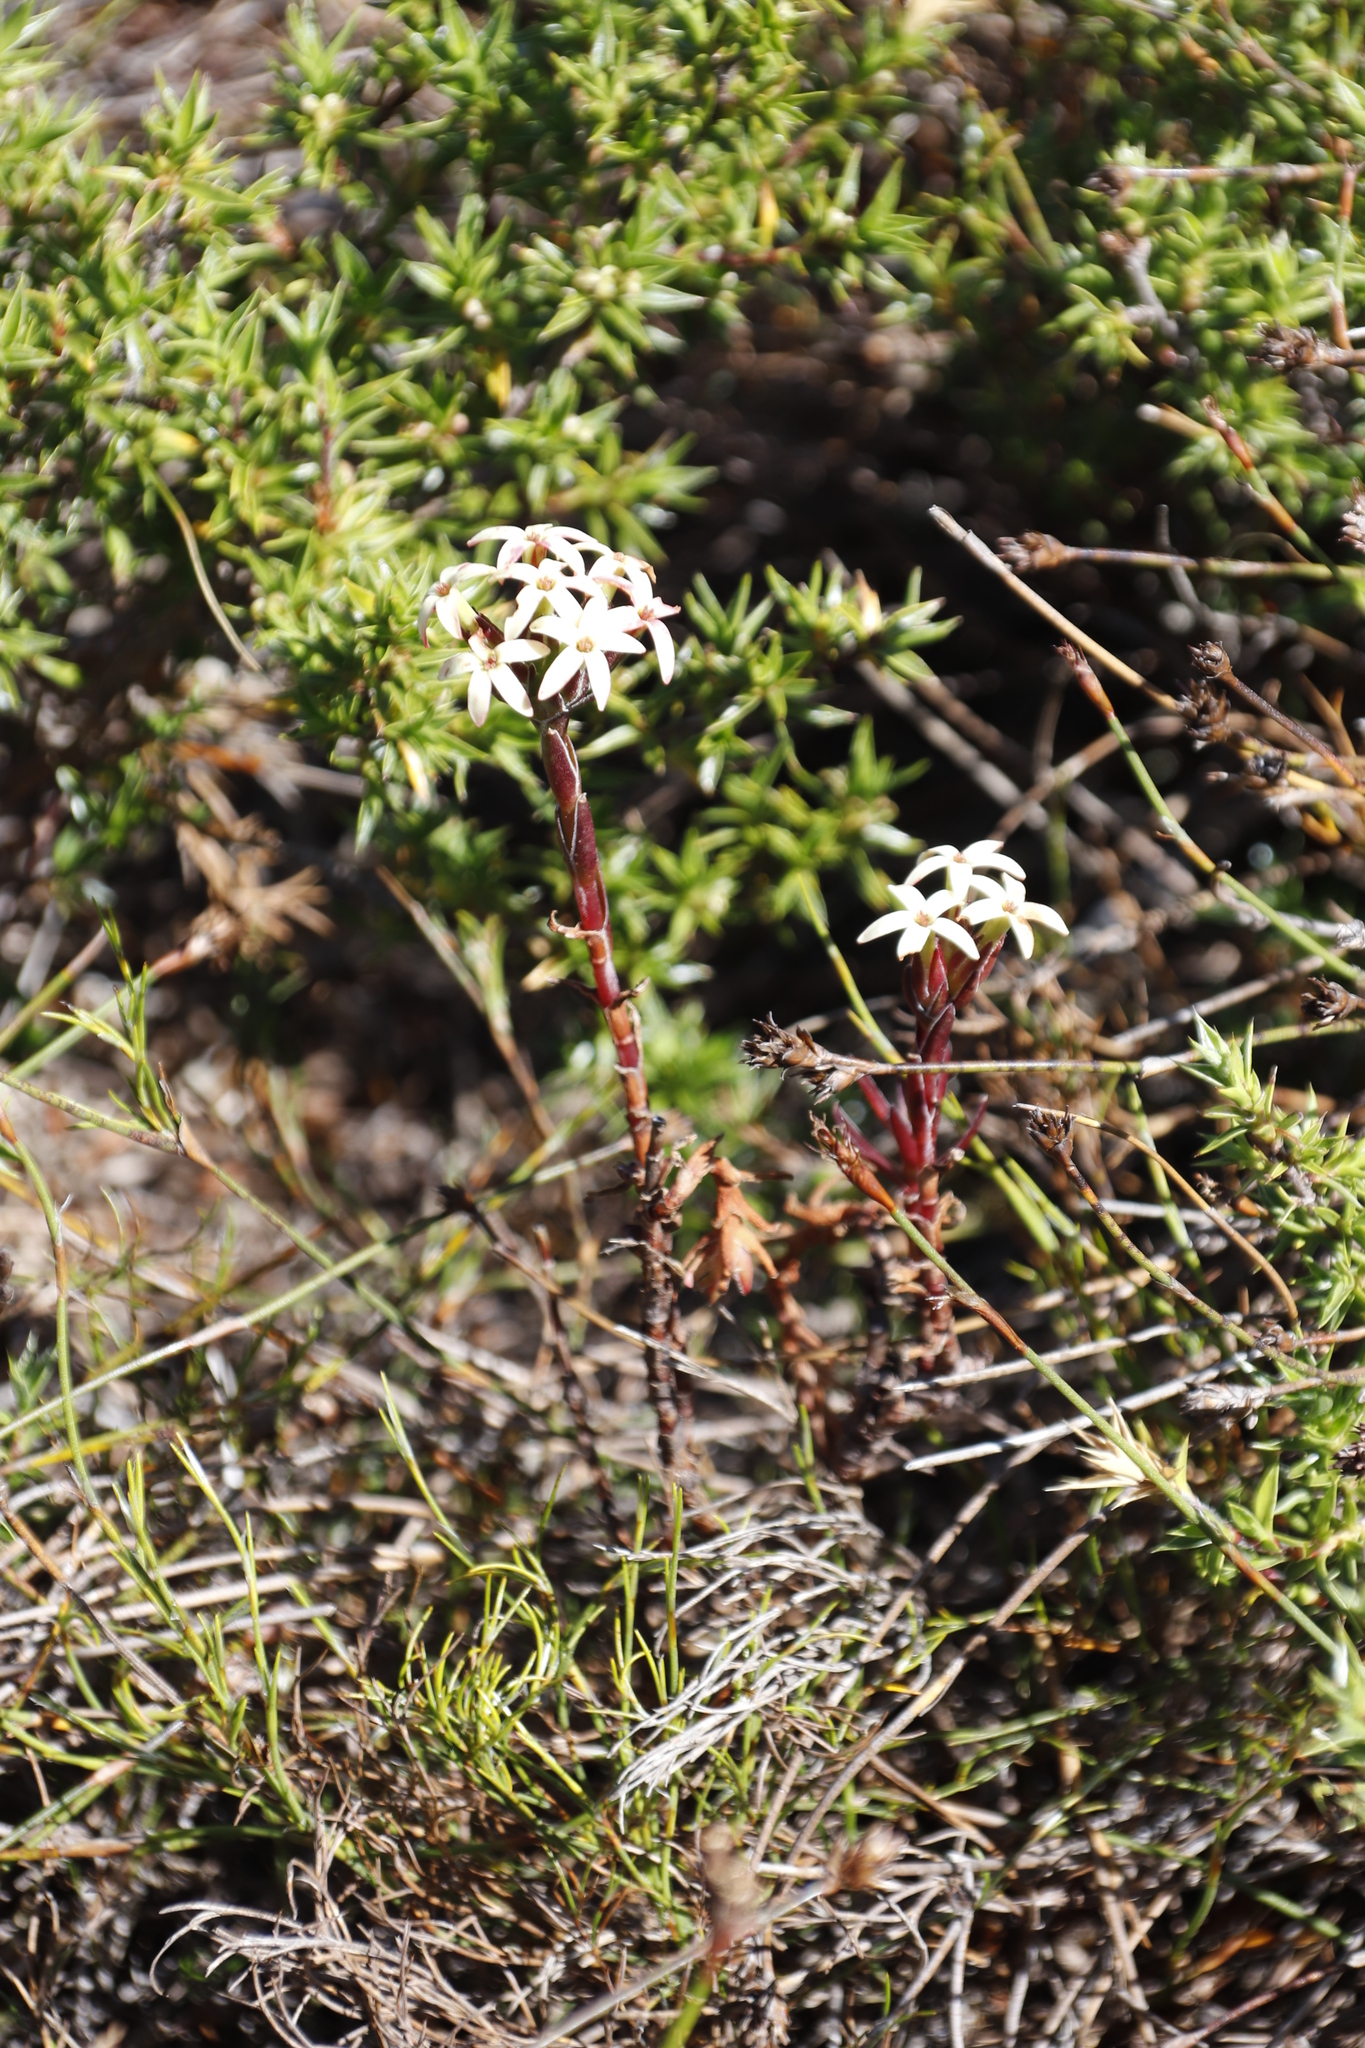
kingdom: Plantae
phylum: Tracheophyta
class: Magnoliopsida
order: Saxifragales
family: Crassulaceae
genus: Crassula
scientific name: Crassula fascicularis
